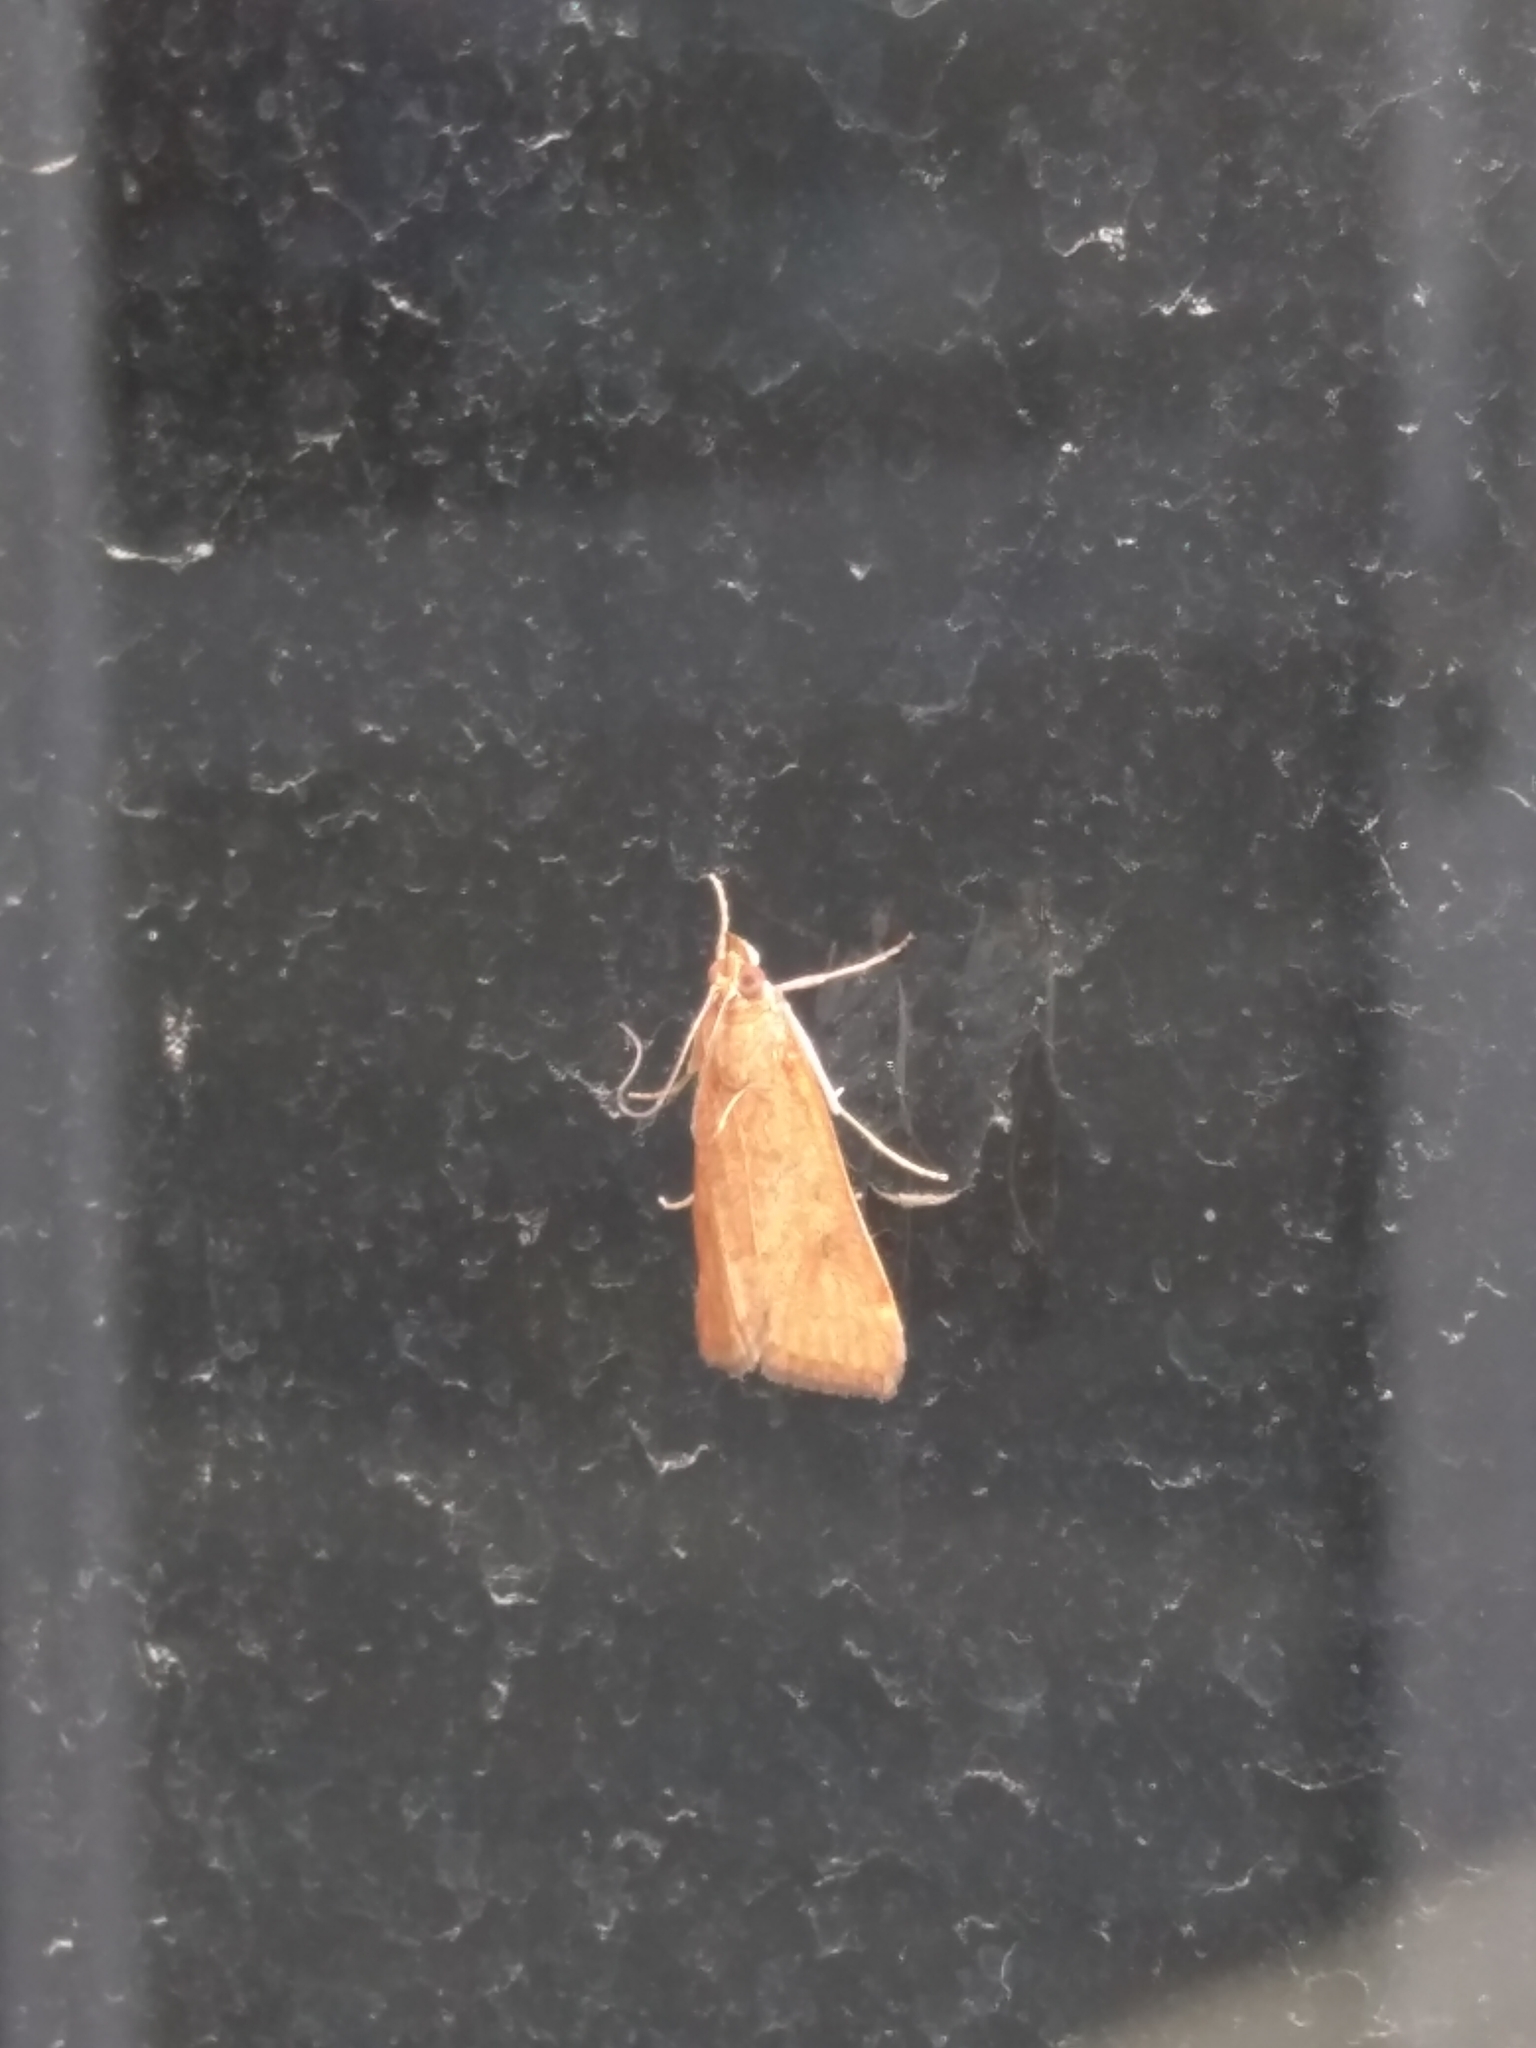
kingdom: Animalia
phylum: Arthropoda
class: Insecta
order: Lepidoptera
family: Crambidae
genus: Achyra
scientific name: Achyra affinitalis
